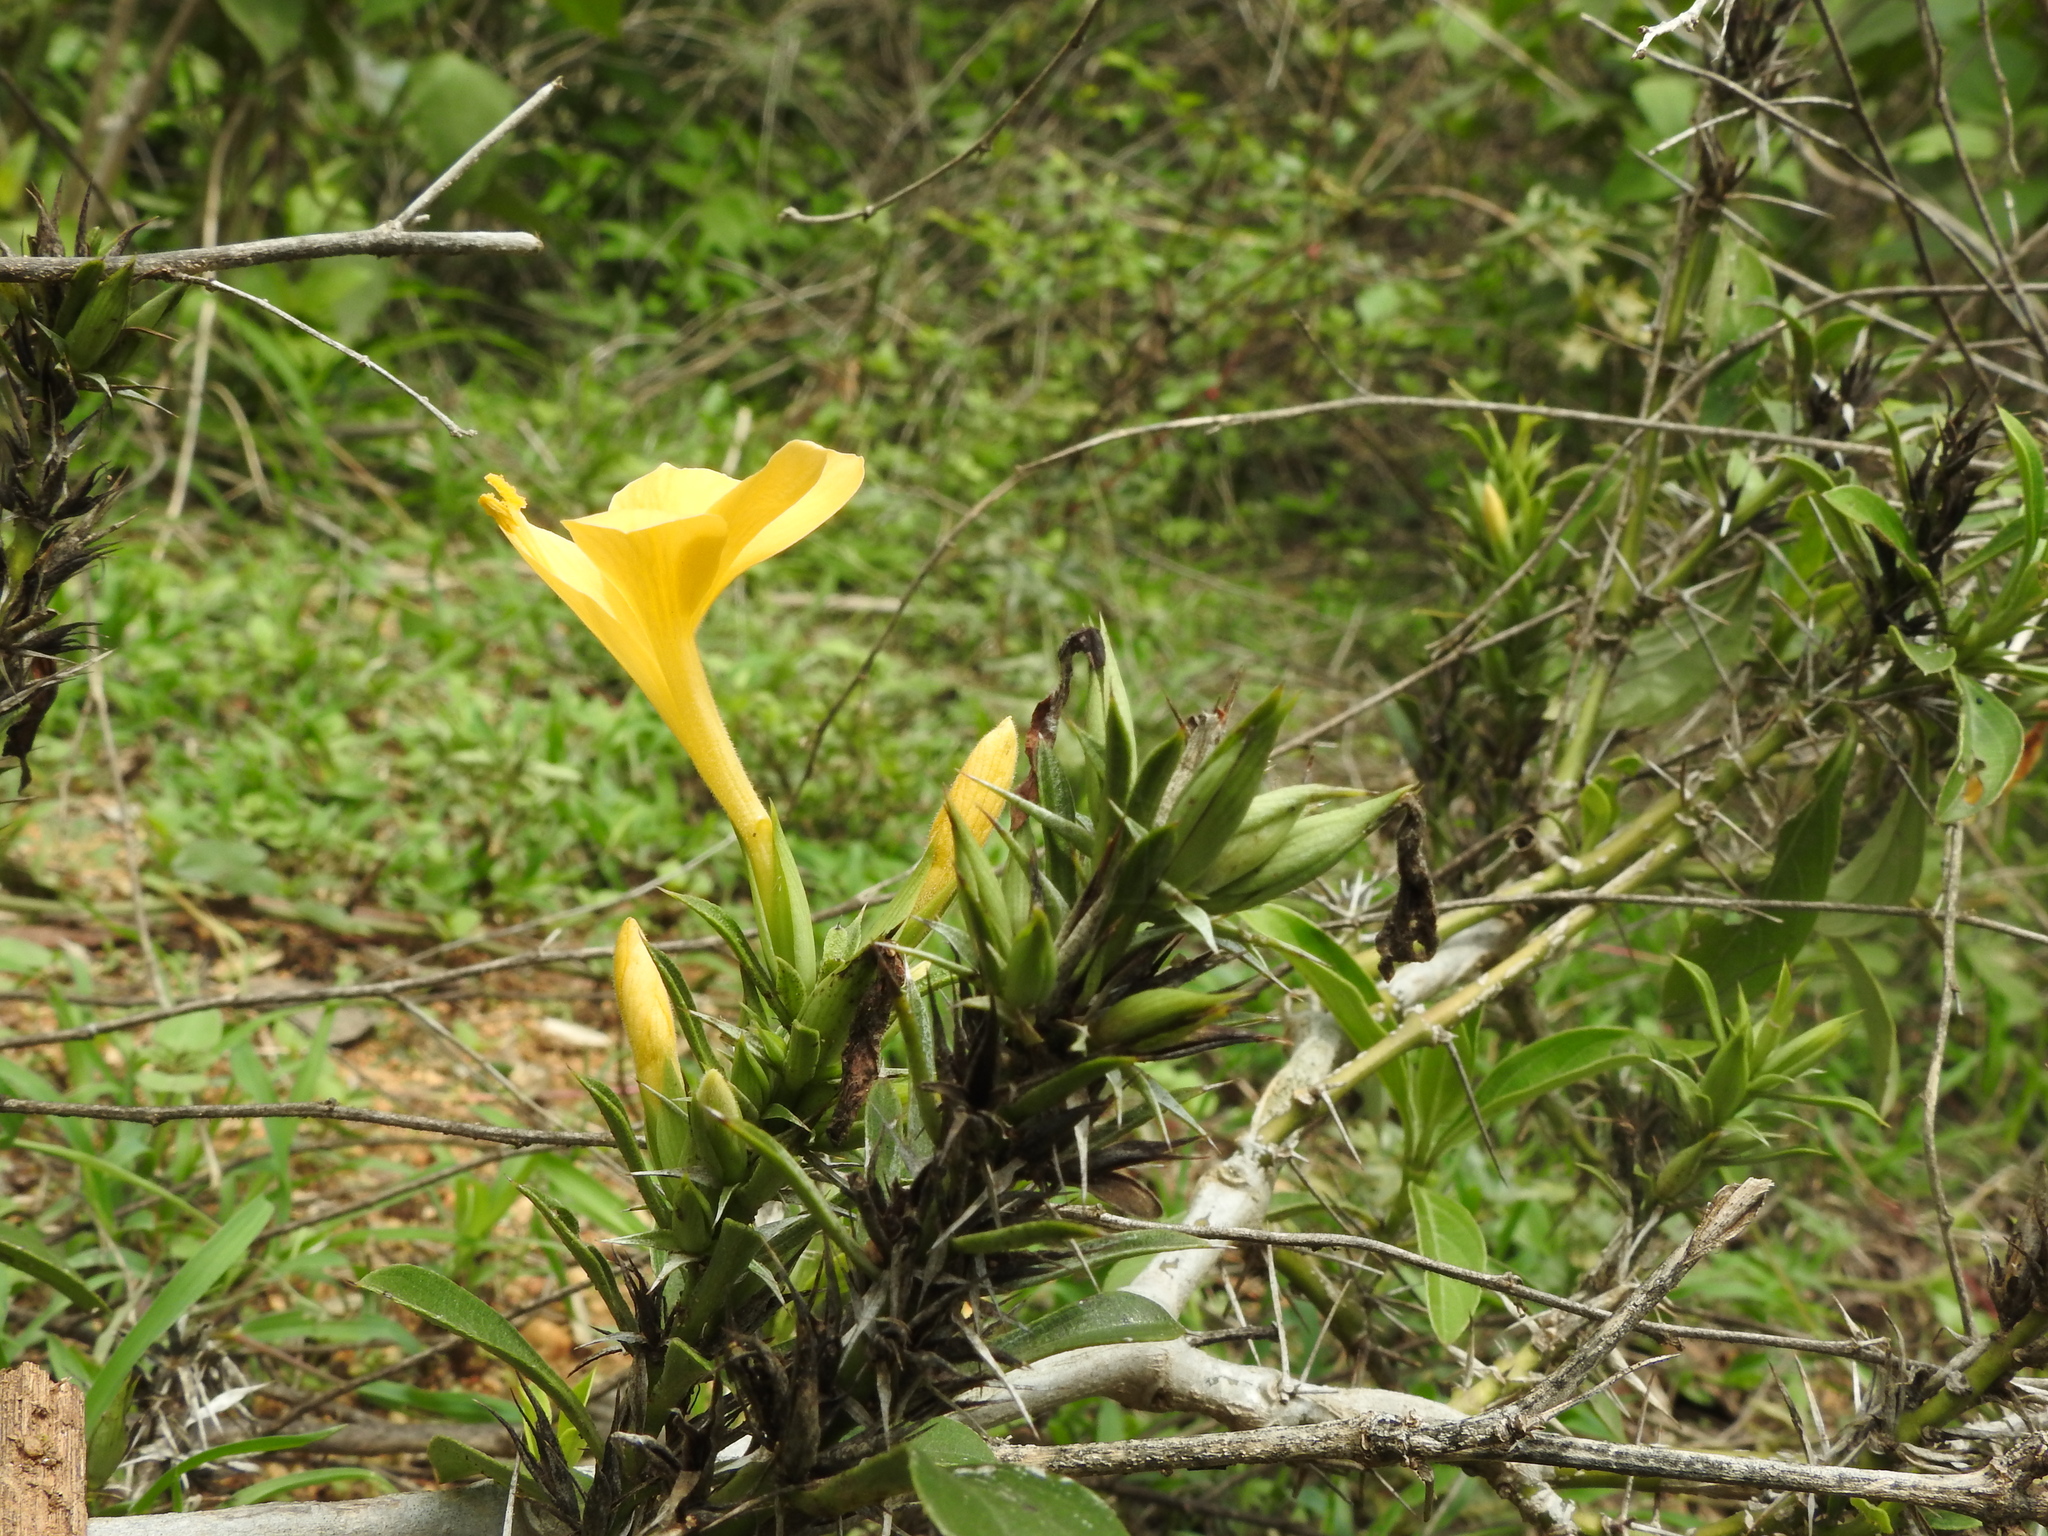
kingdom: Plantae
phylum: Tracheophyta
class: Magnoliopsida
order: Lamiales
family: Acanthaceae
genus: Barleria
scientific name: Barleria prionitis
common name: Barleria
